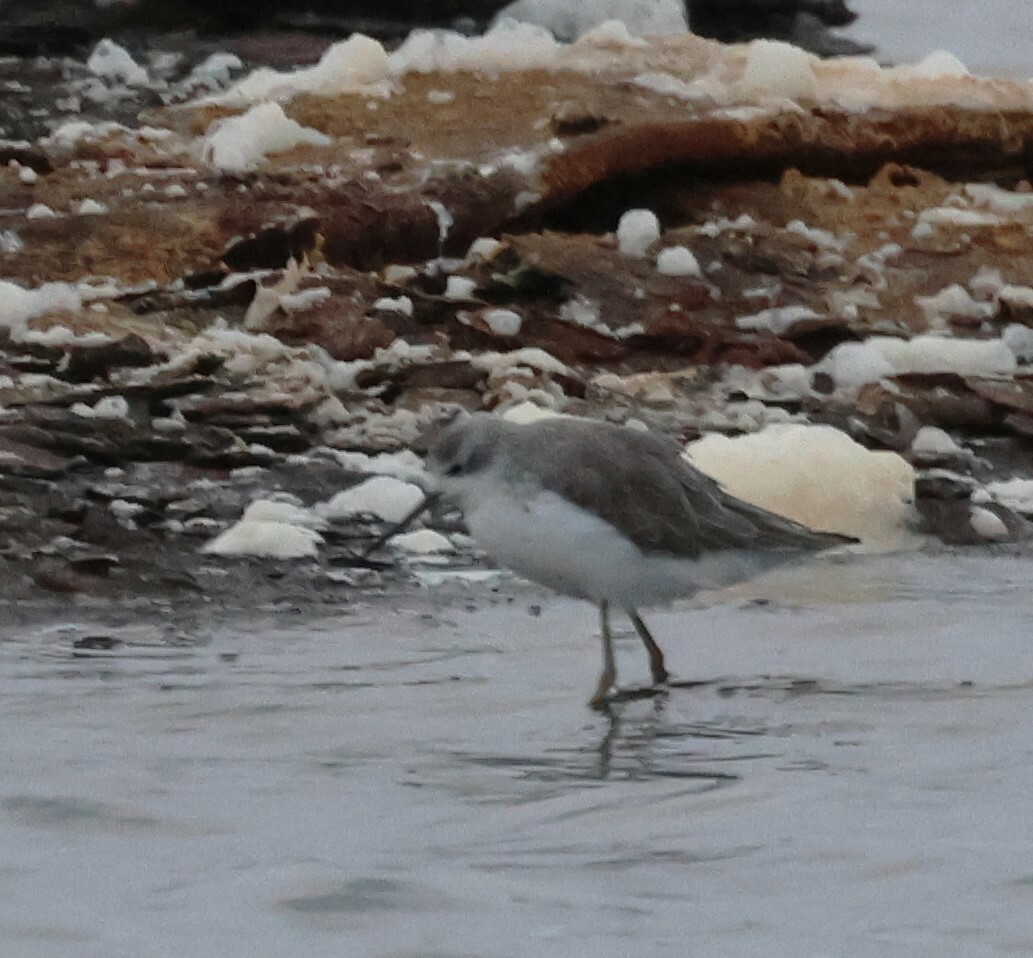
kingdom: Animalia
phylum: Chordata
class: Aves
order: Charadriiformes
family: Scolopacidae
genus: Tringa
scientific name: Tringa stagnatilis
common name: Marsh sandpiper
